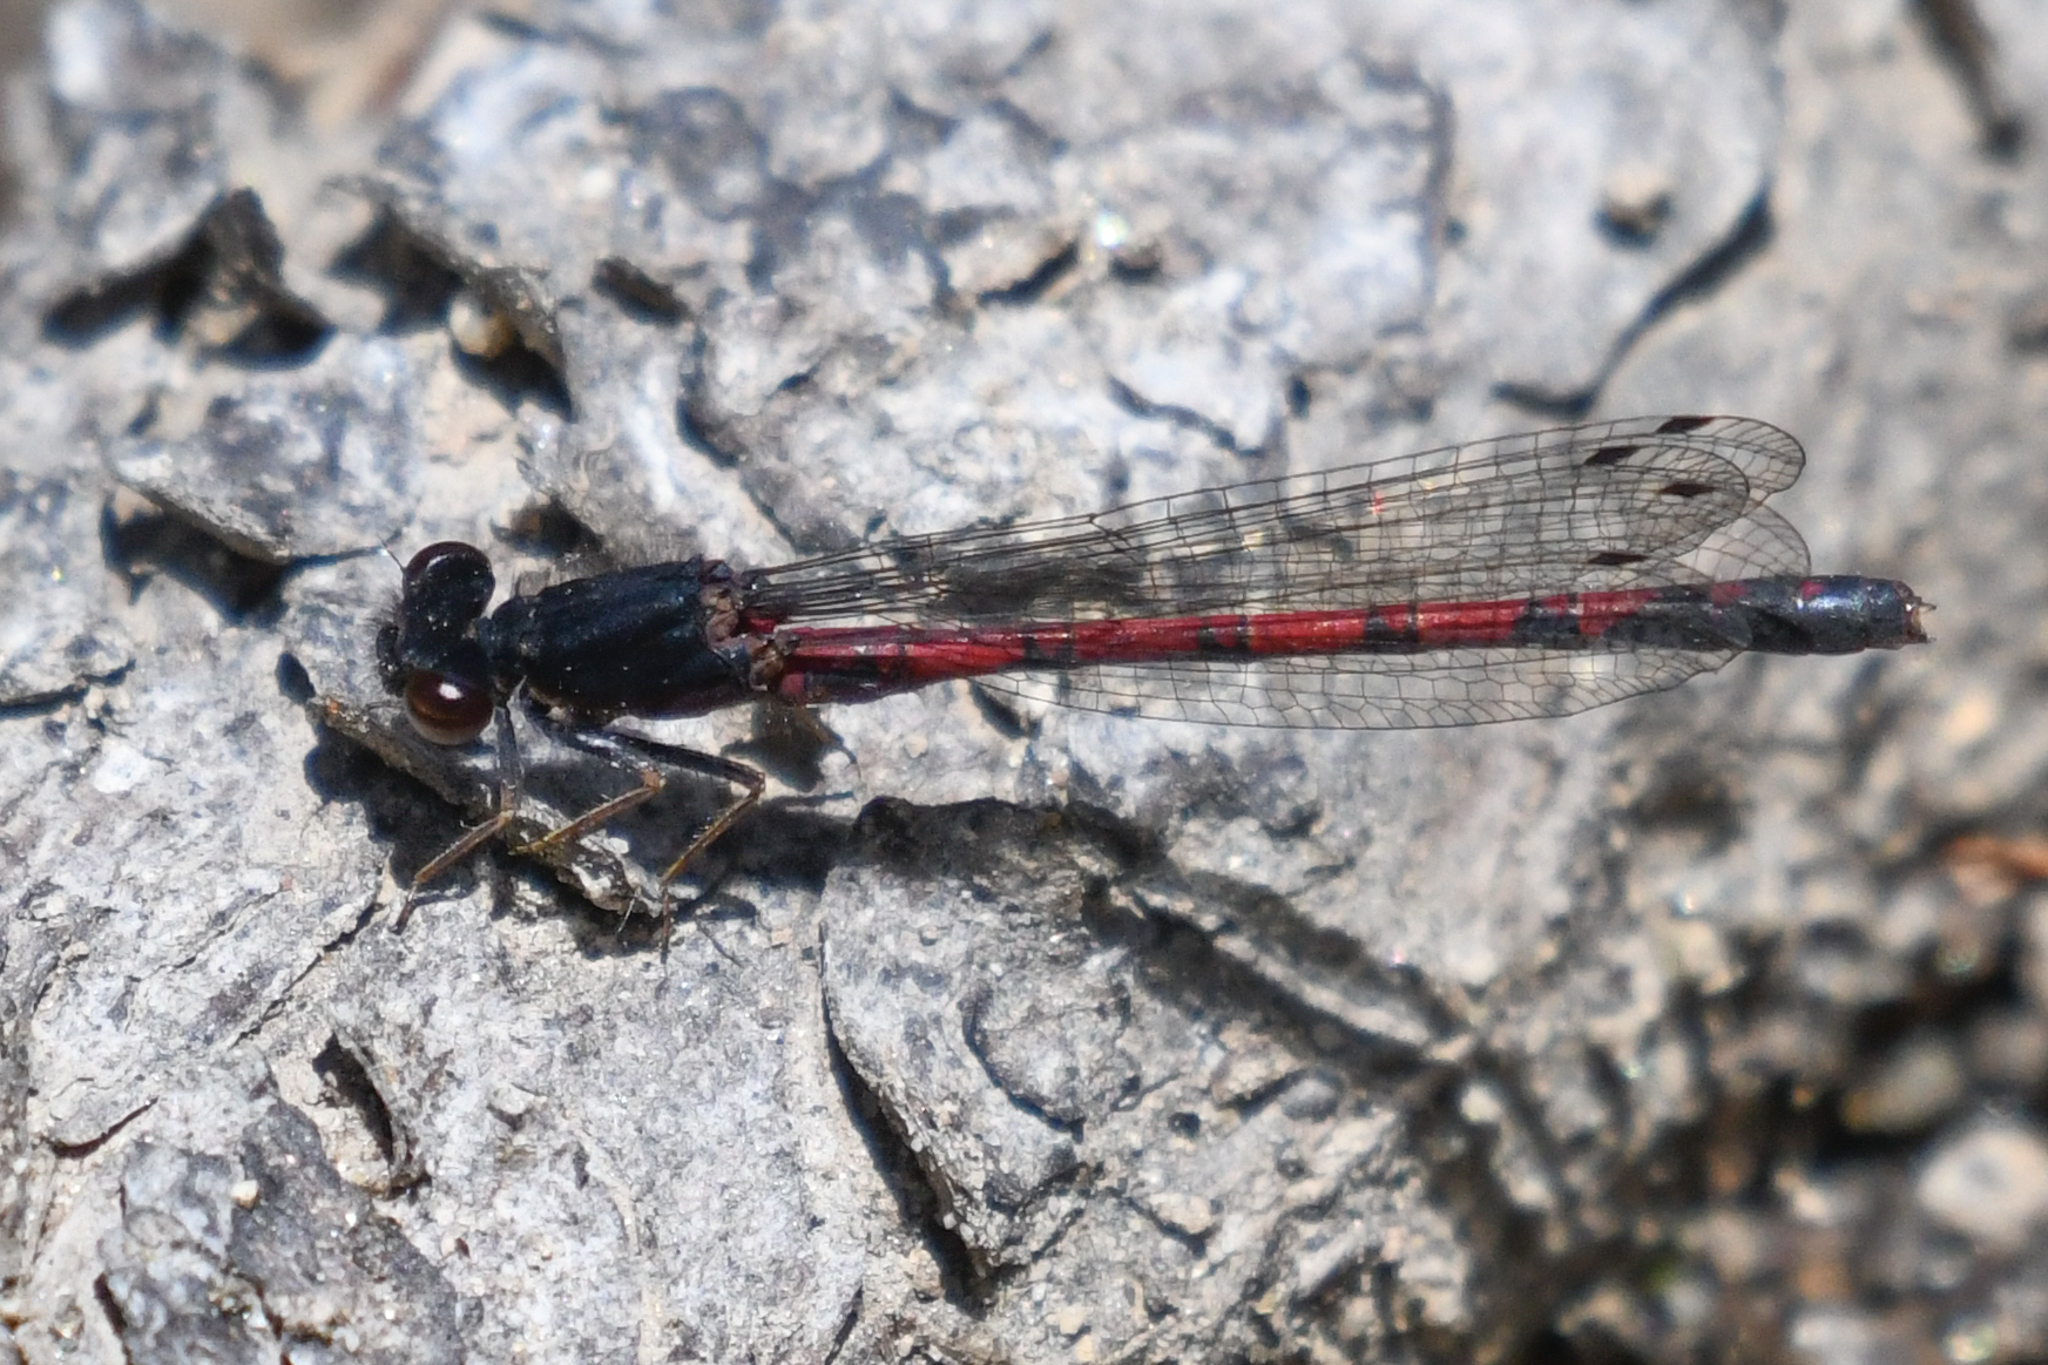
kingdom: Animalia
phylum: Arthropoda
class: Insecta
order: Odonata
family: Coenagrionidae
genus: Amphiagrion
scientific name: Amphiagrion abbreviatum
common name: Western red damsel
